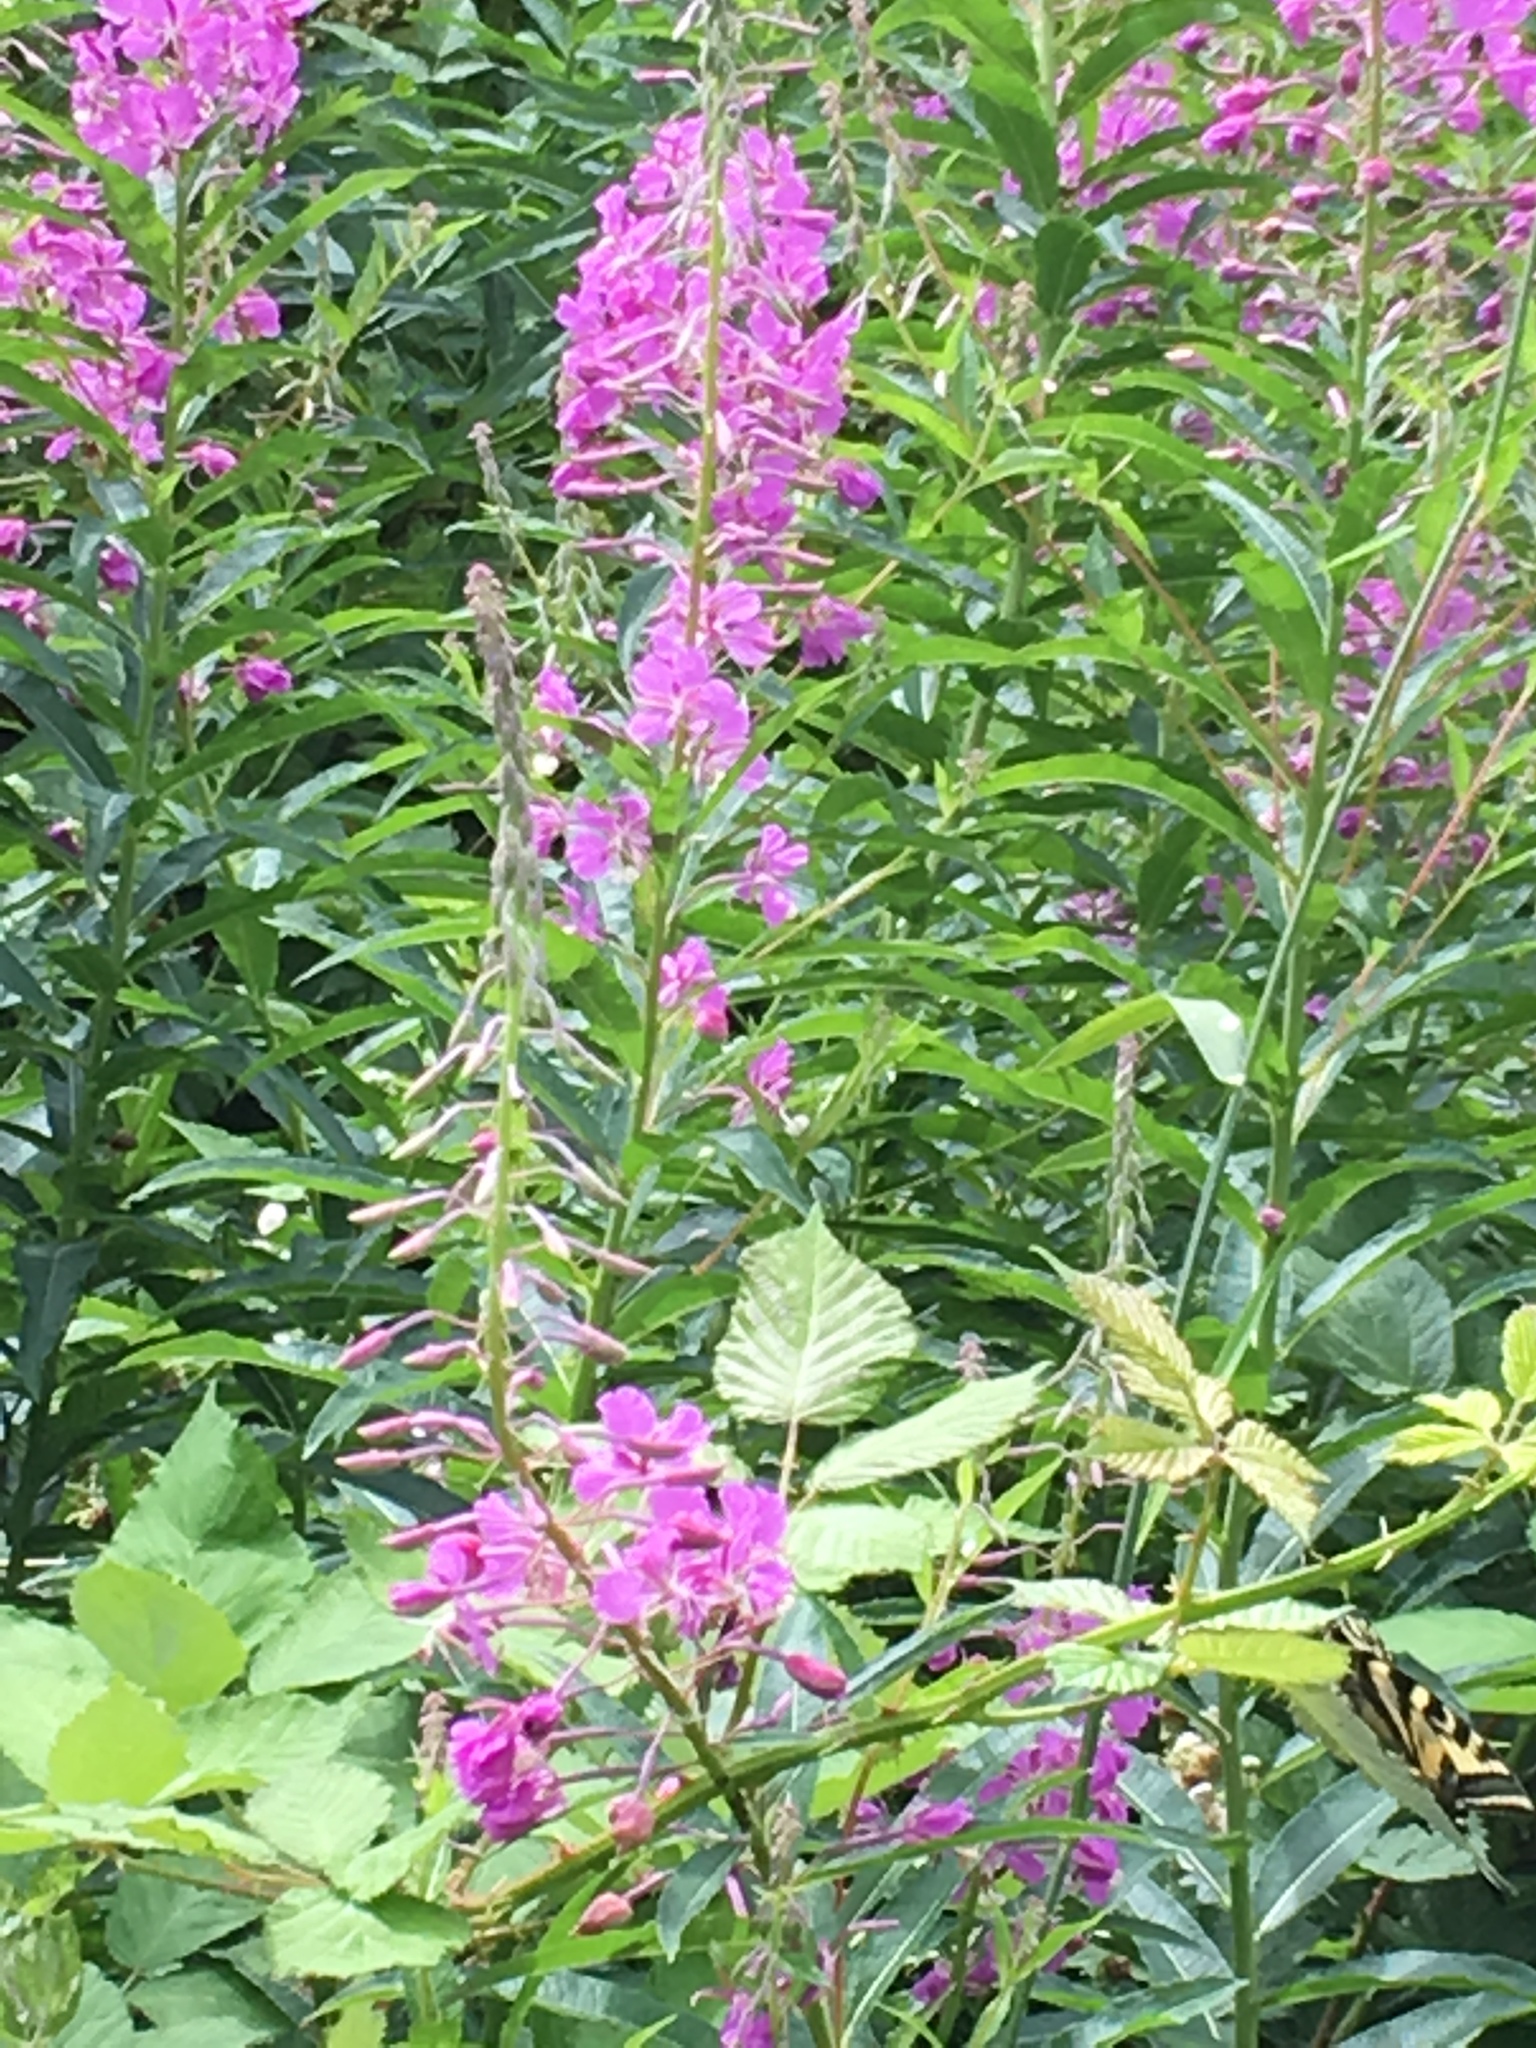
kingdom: Plantae
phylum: Tracheophyta
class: Magnoliopsida
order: Myrtales
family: Onagraceae
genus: Chamaenerion
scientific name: Chamaenerion angustifolium
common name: Fireweed
